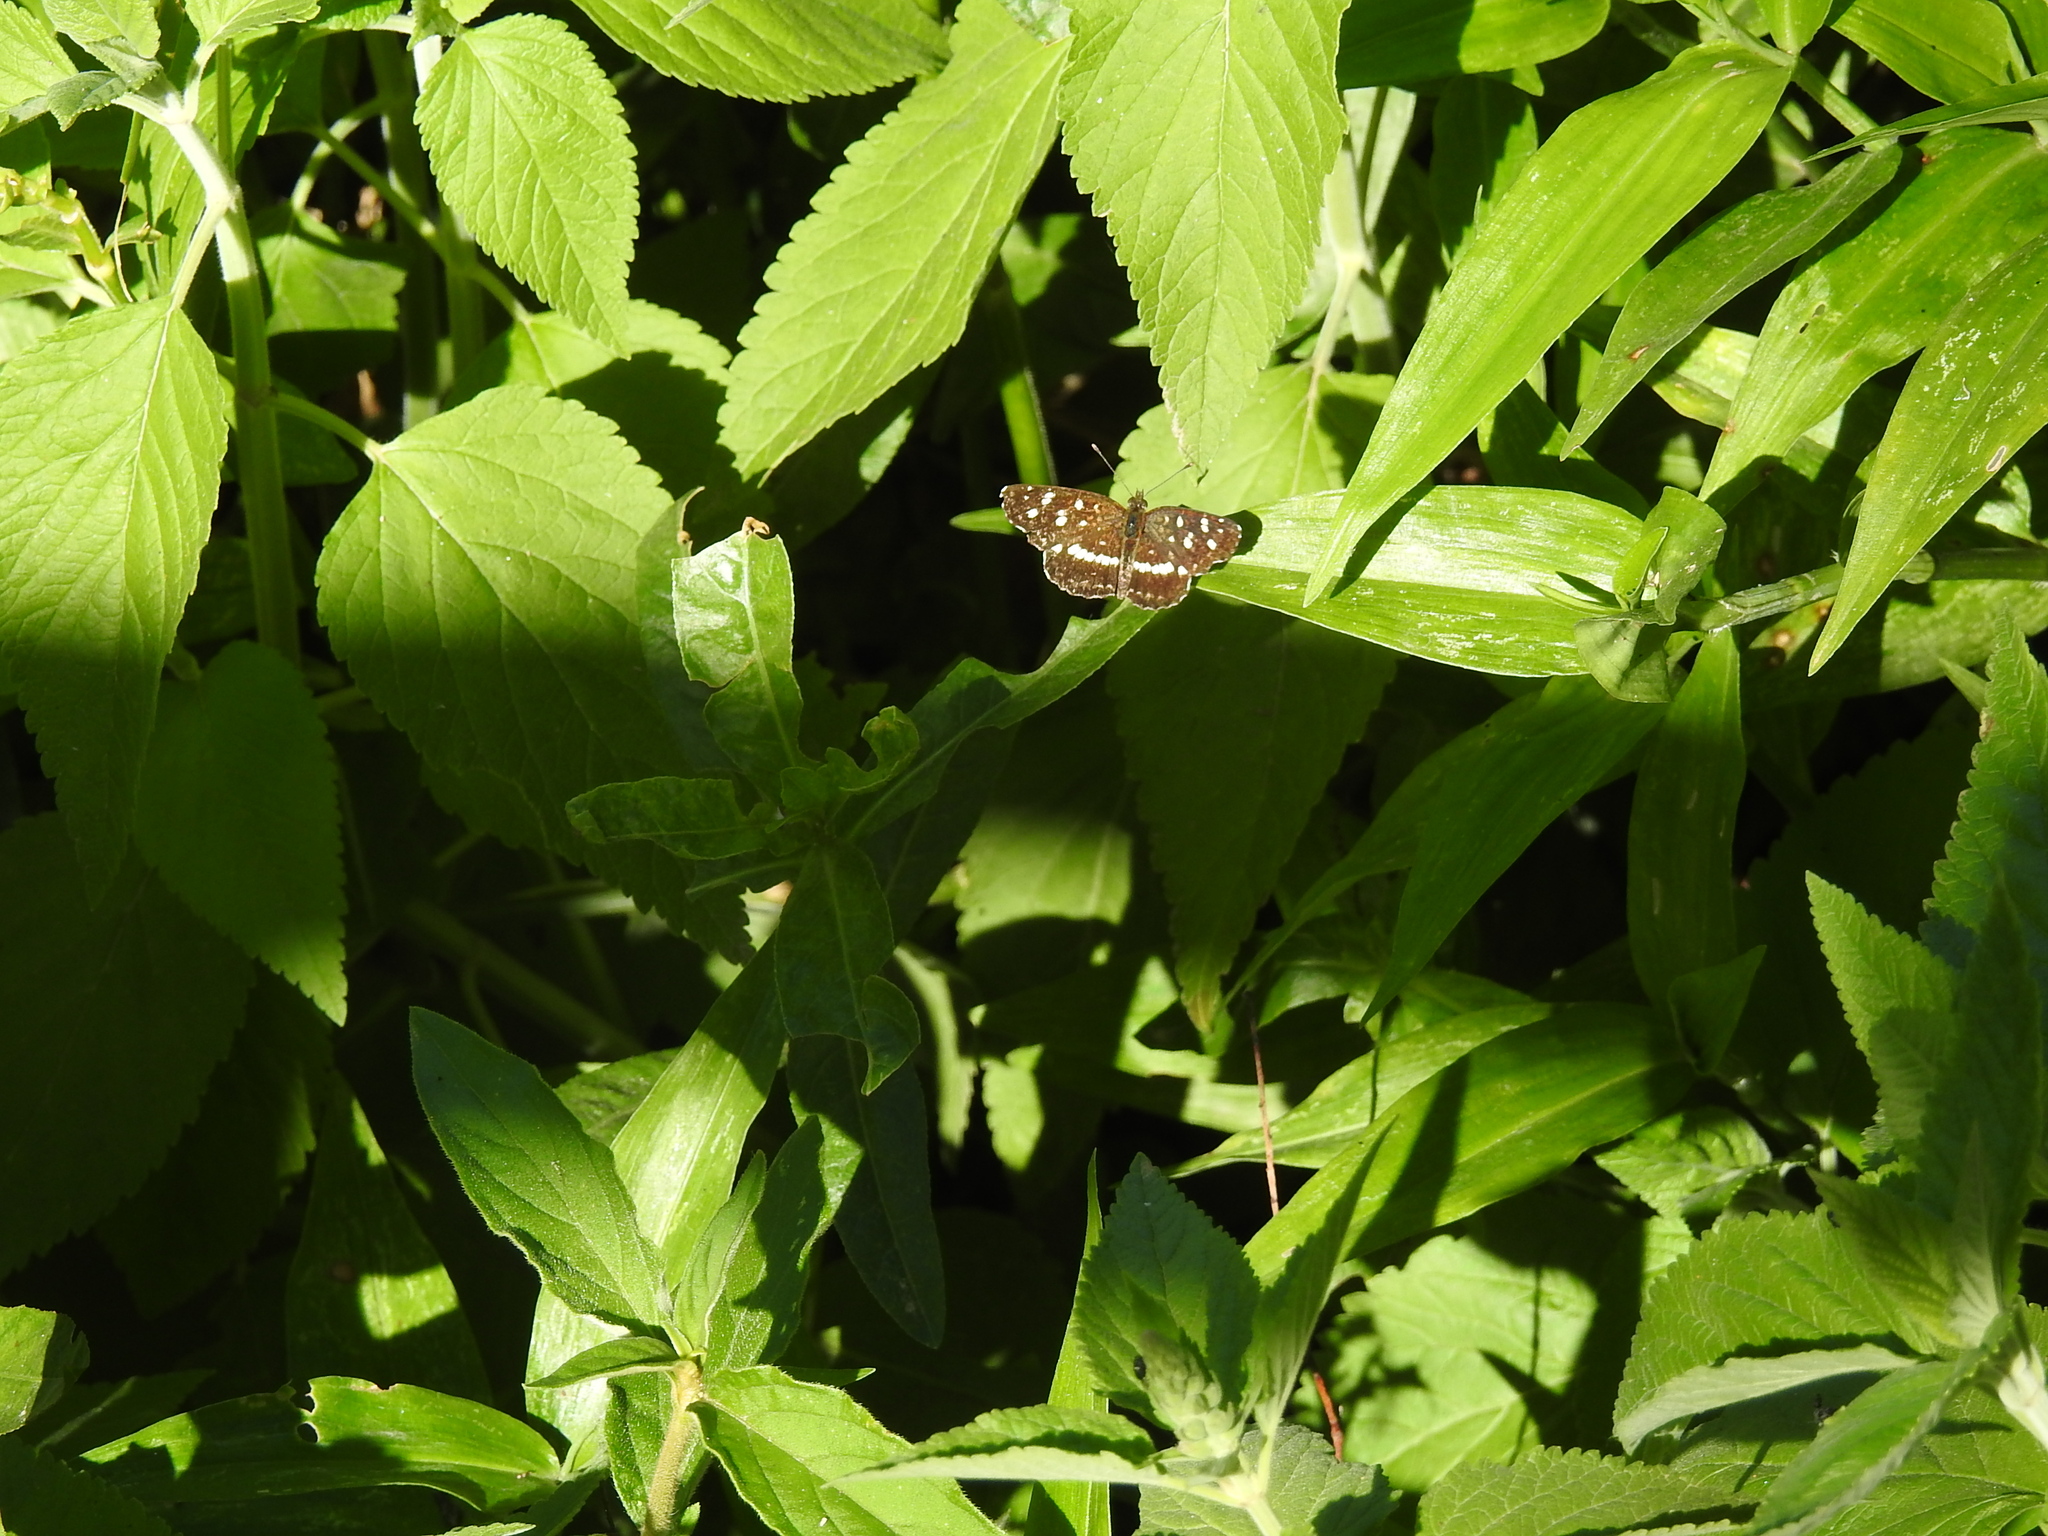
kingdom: Animalia
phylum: Arthropoda
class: Insecta
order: Lepidoptera
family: Nymphalidae
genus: Ortilia
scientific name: Ortilia ithra
